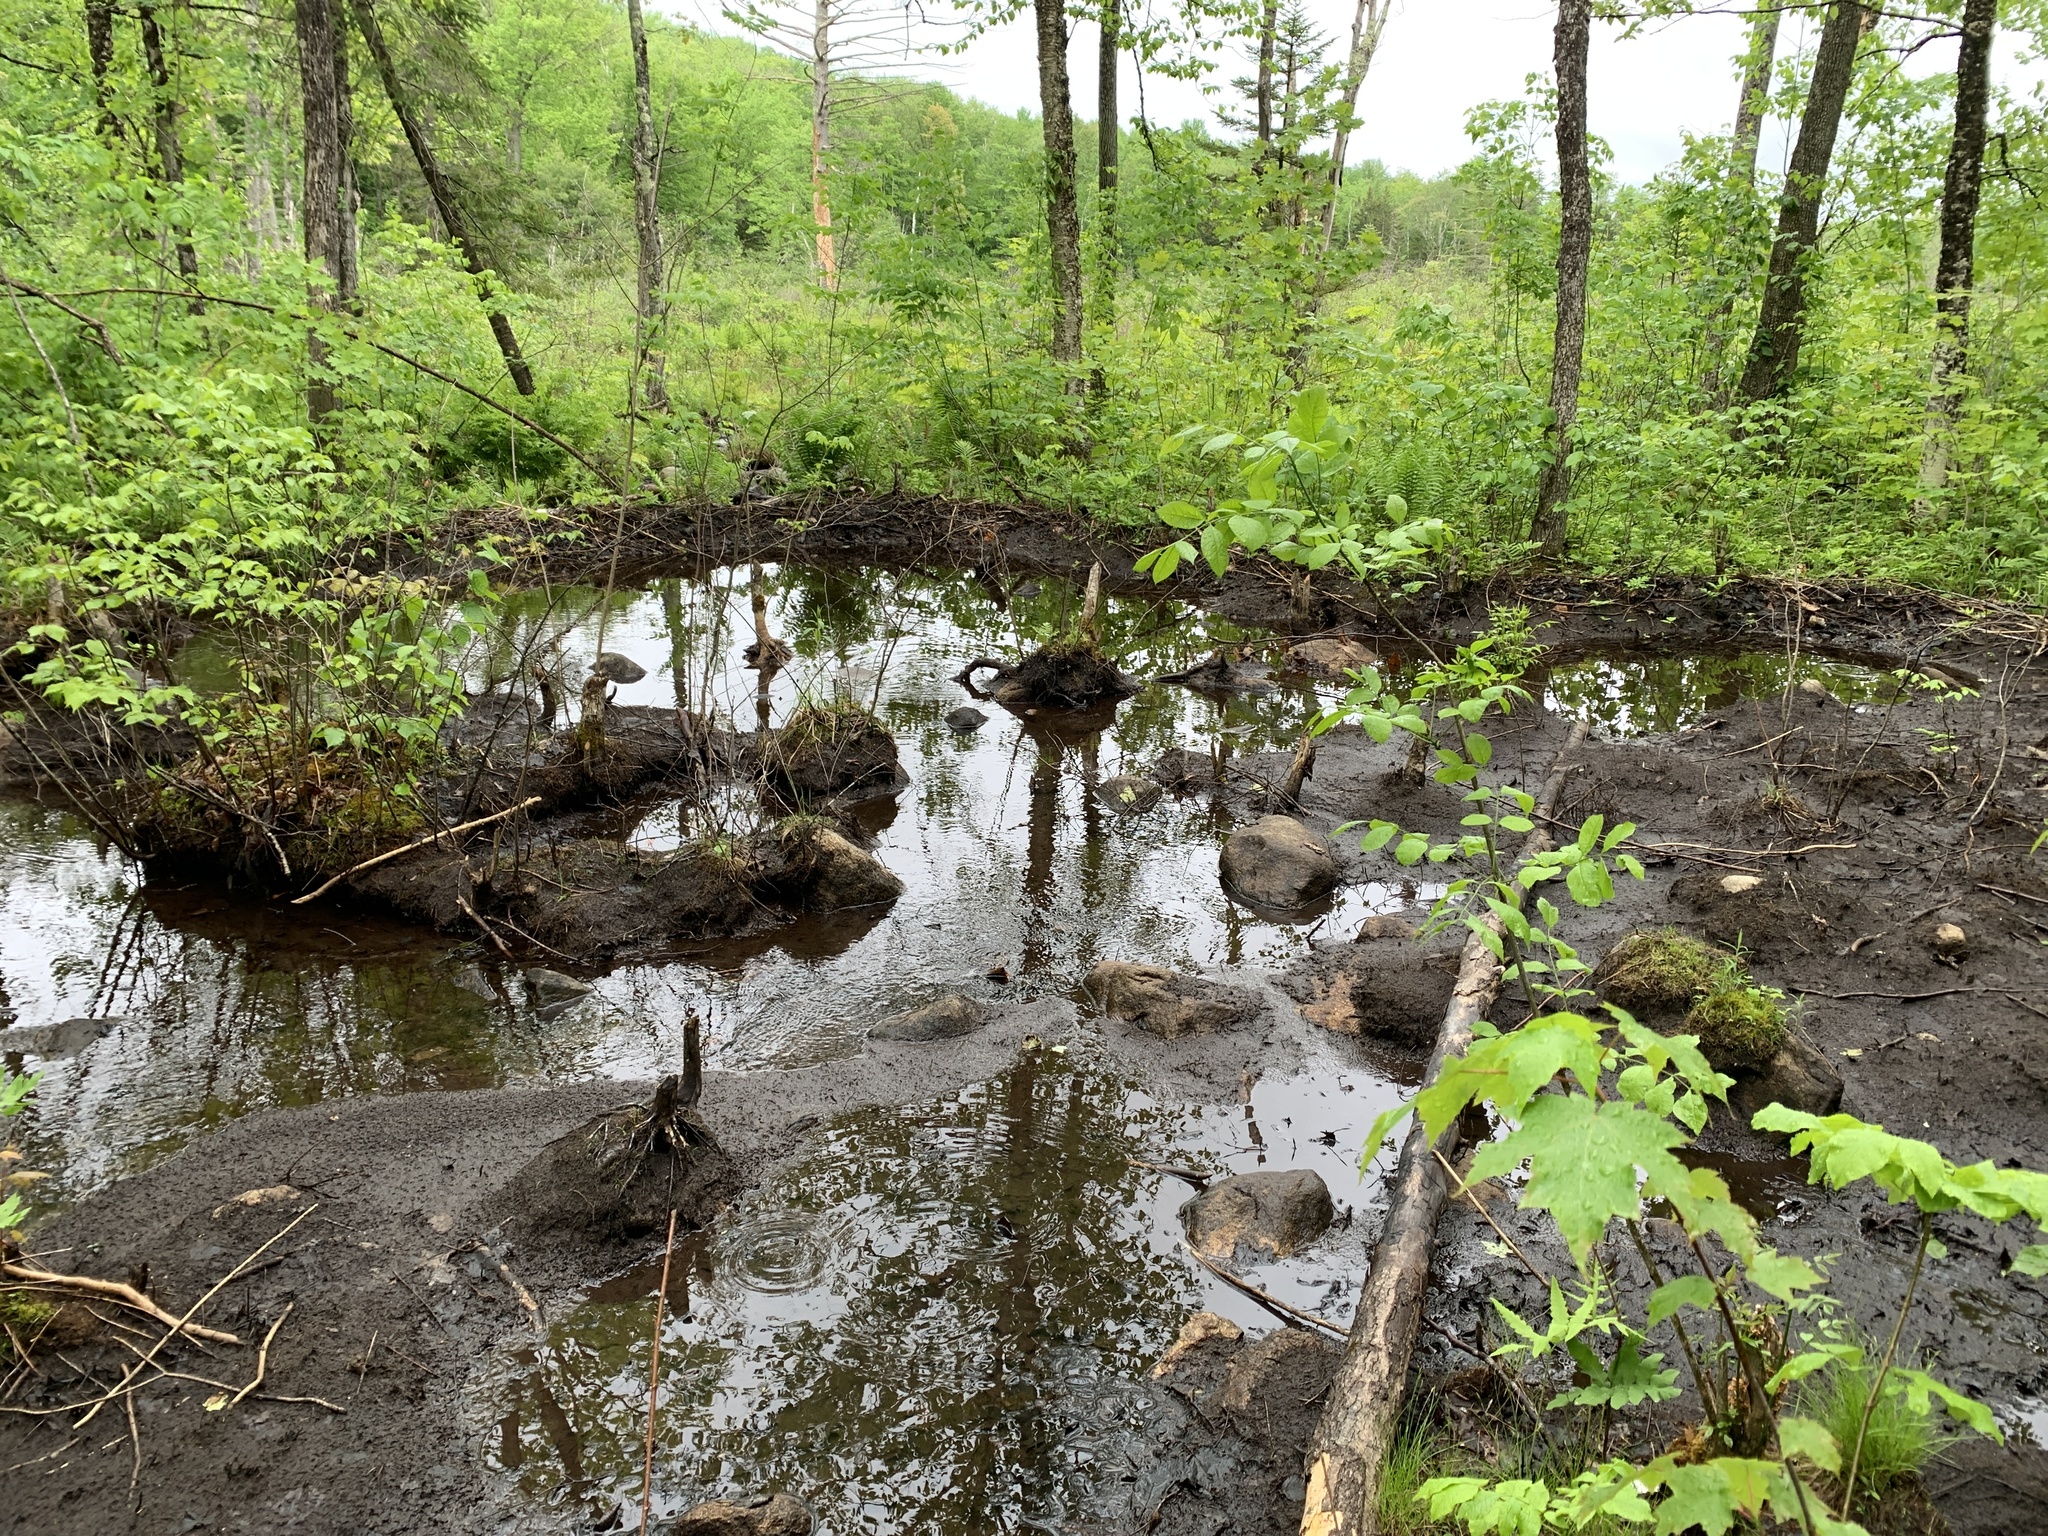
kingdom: Animalia
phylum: Chordata
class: Mammalia
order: Rodentia
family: Castoridae
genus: Castor
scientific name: Castor canadensis
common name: American beaver
